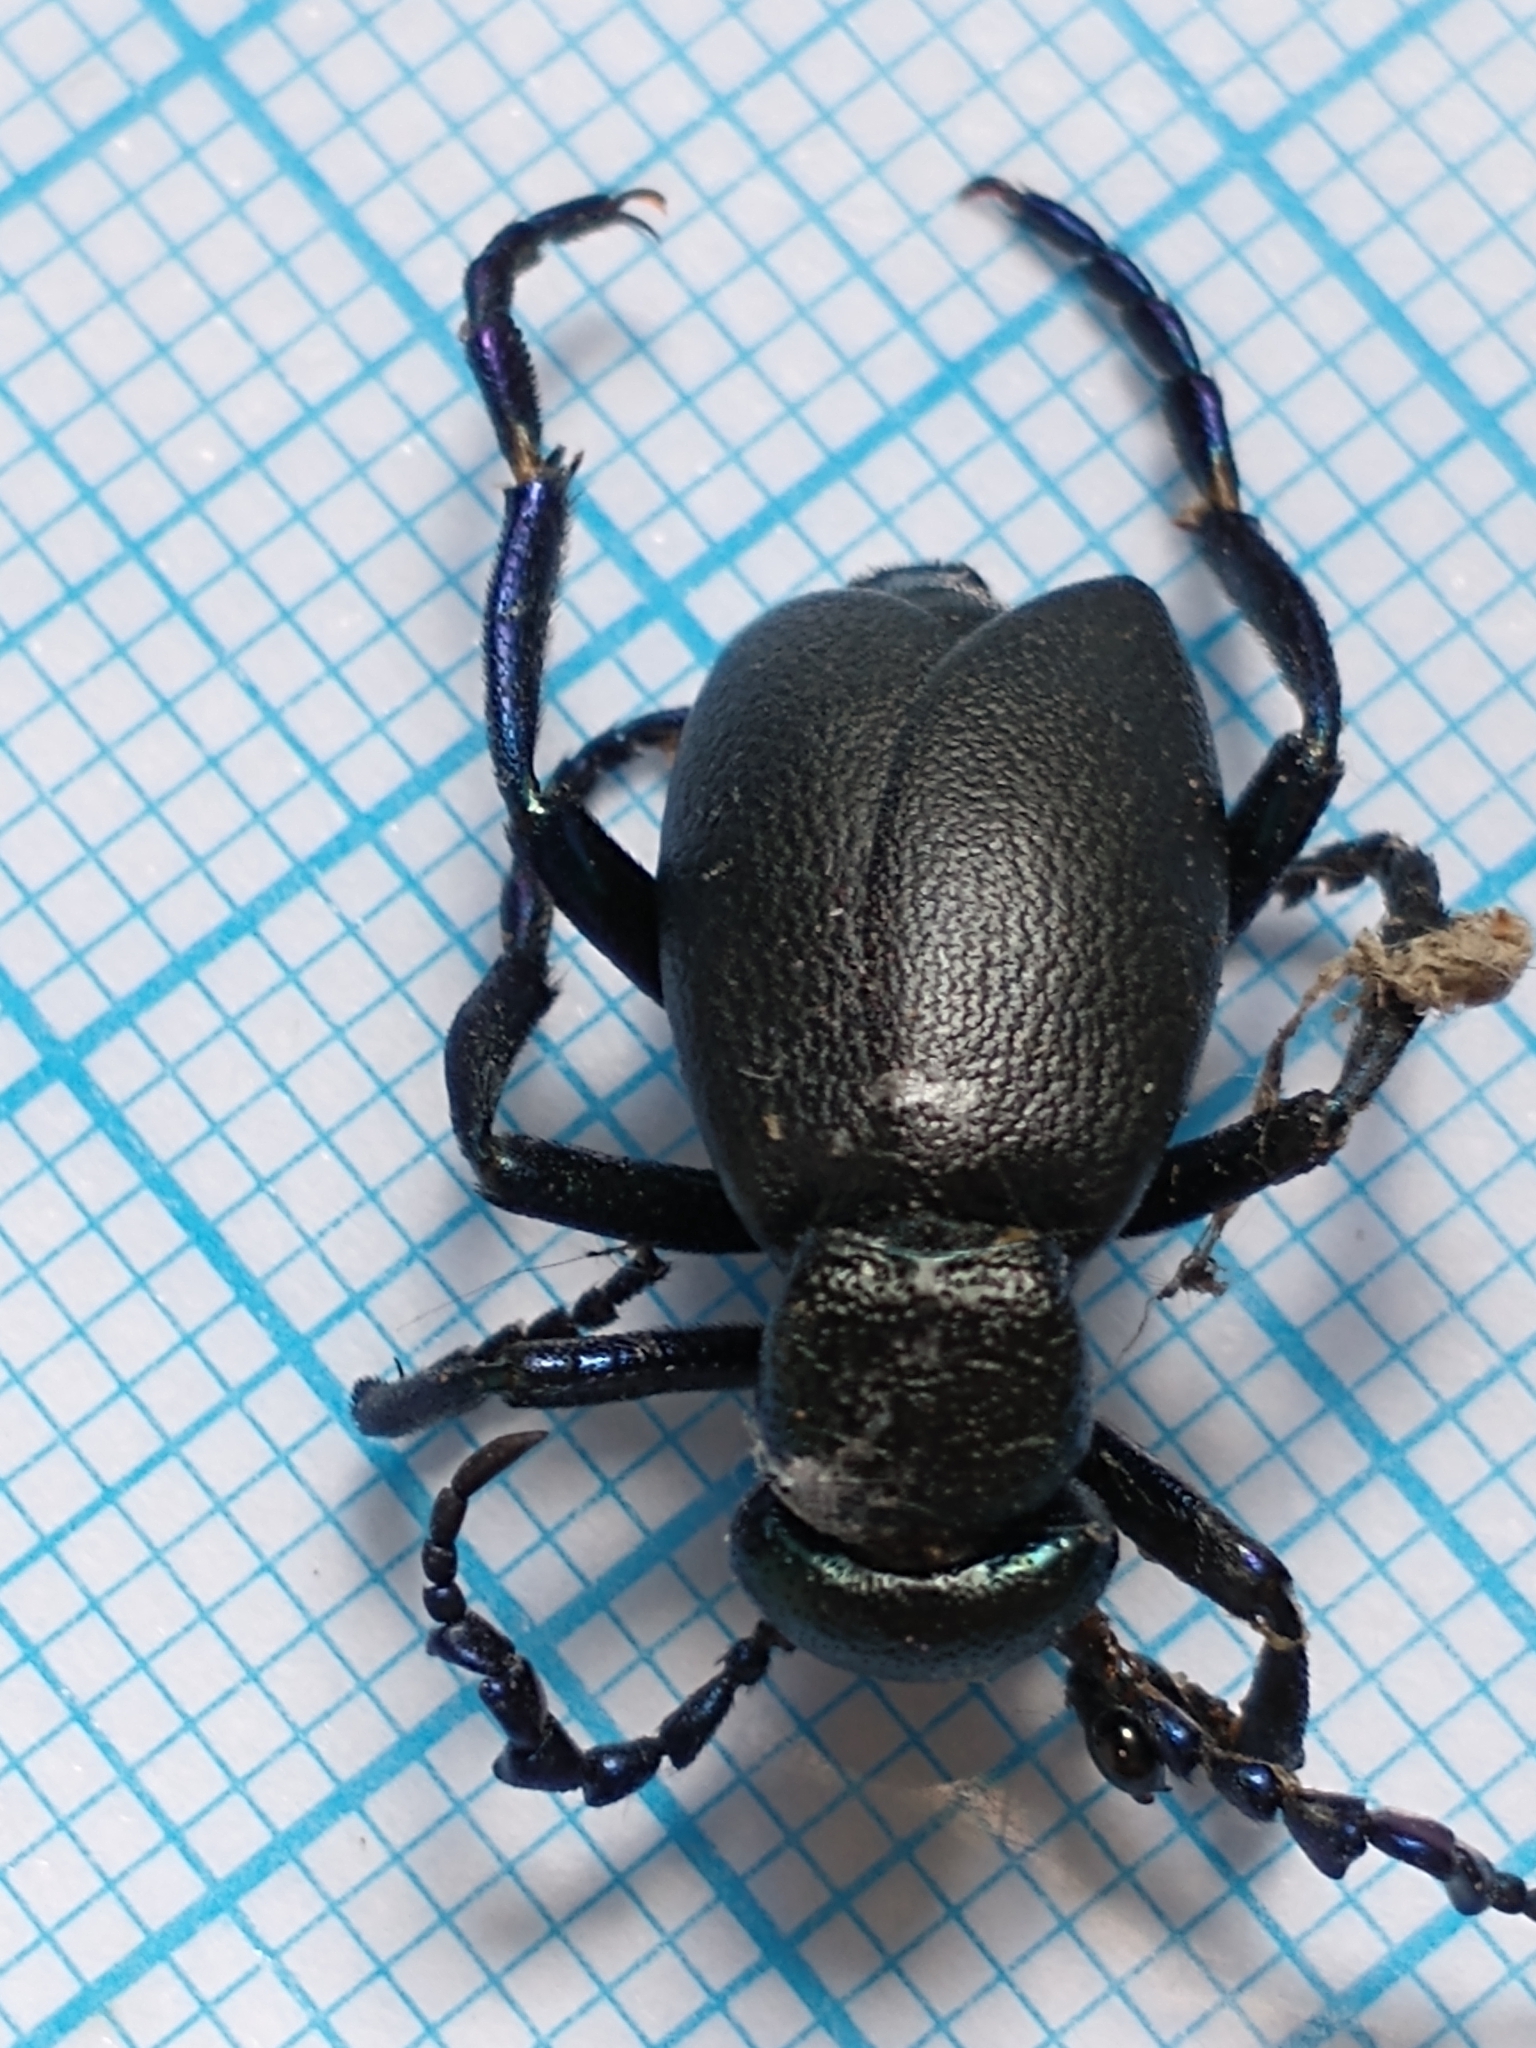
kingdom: Animalia
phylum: Arthropoda
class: Insecta
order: Coleoptera
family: Meloidae
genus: Meloe
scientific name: Meloe proscarabaeus
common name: Black oil-beetle
